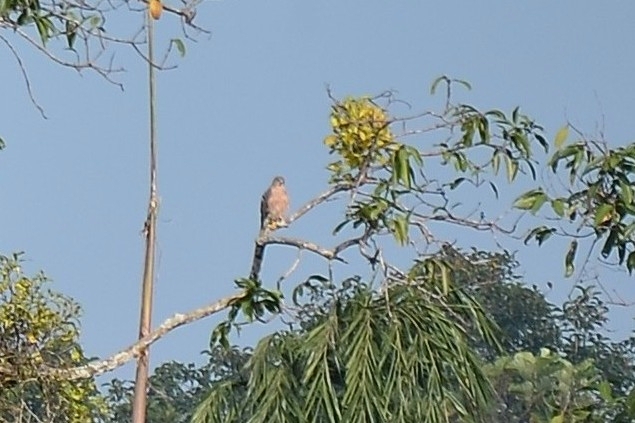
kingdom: Animalia
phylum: Chordata
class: Aves
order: Accipitriformes
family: Accipitridae
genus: Accipiter
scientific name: Accipiter badius
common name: Shikra
